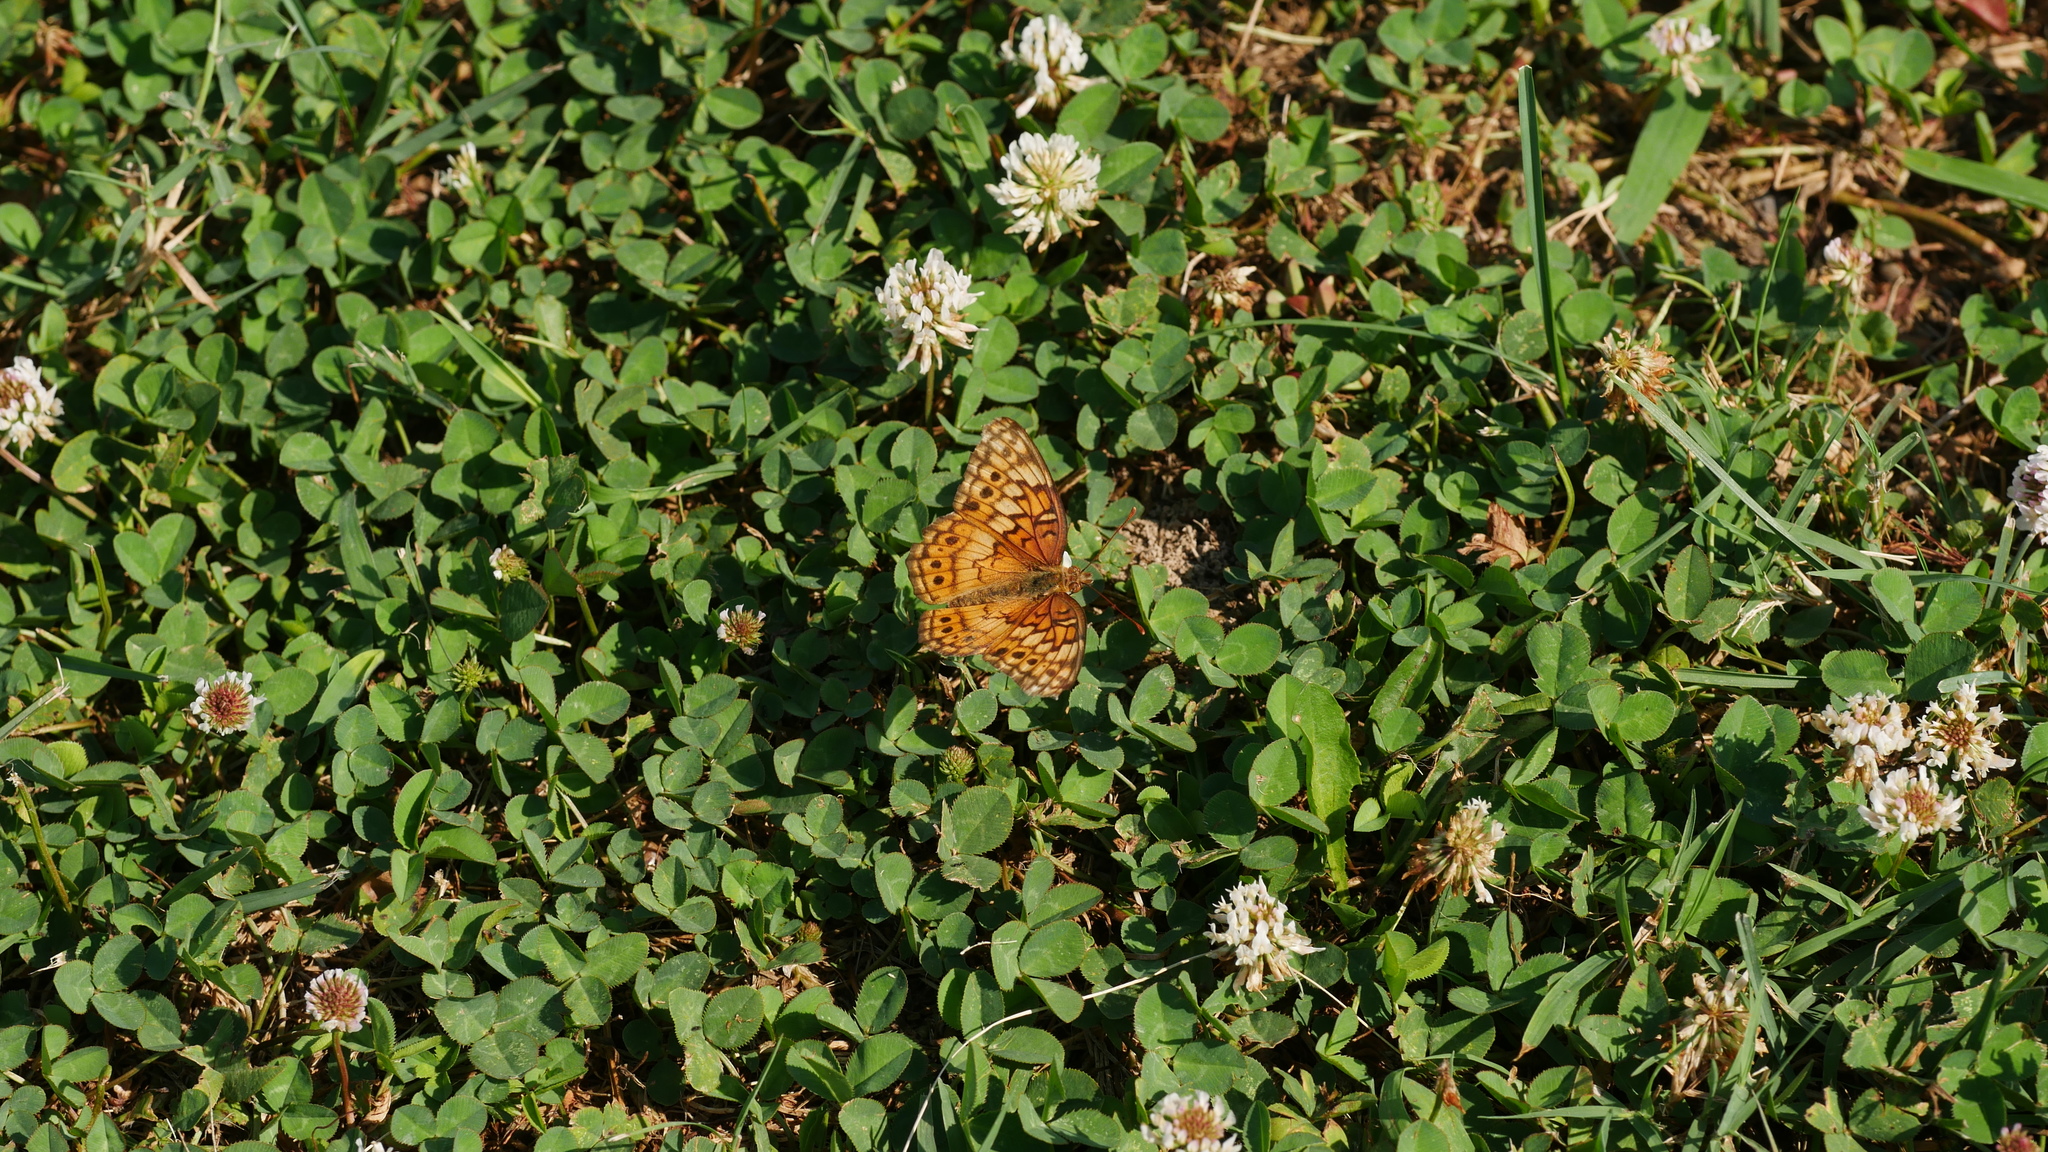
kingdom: Animalia
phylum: Arthropoda
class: Insecta
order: Lepidoptera
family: Nymphalidae
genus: Euptoieta
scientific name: Euptoieta claudia
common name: Variegated fritillary
